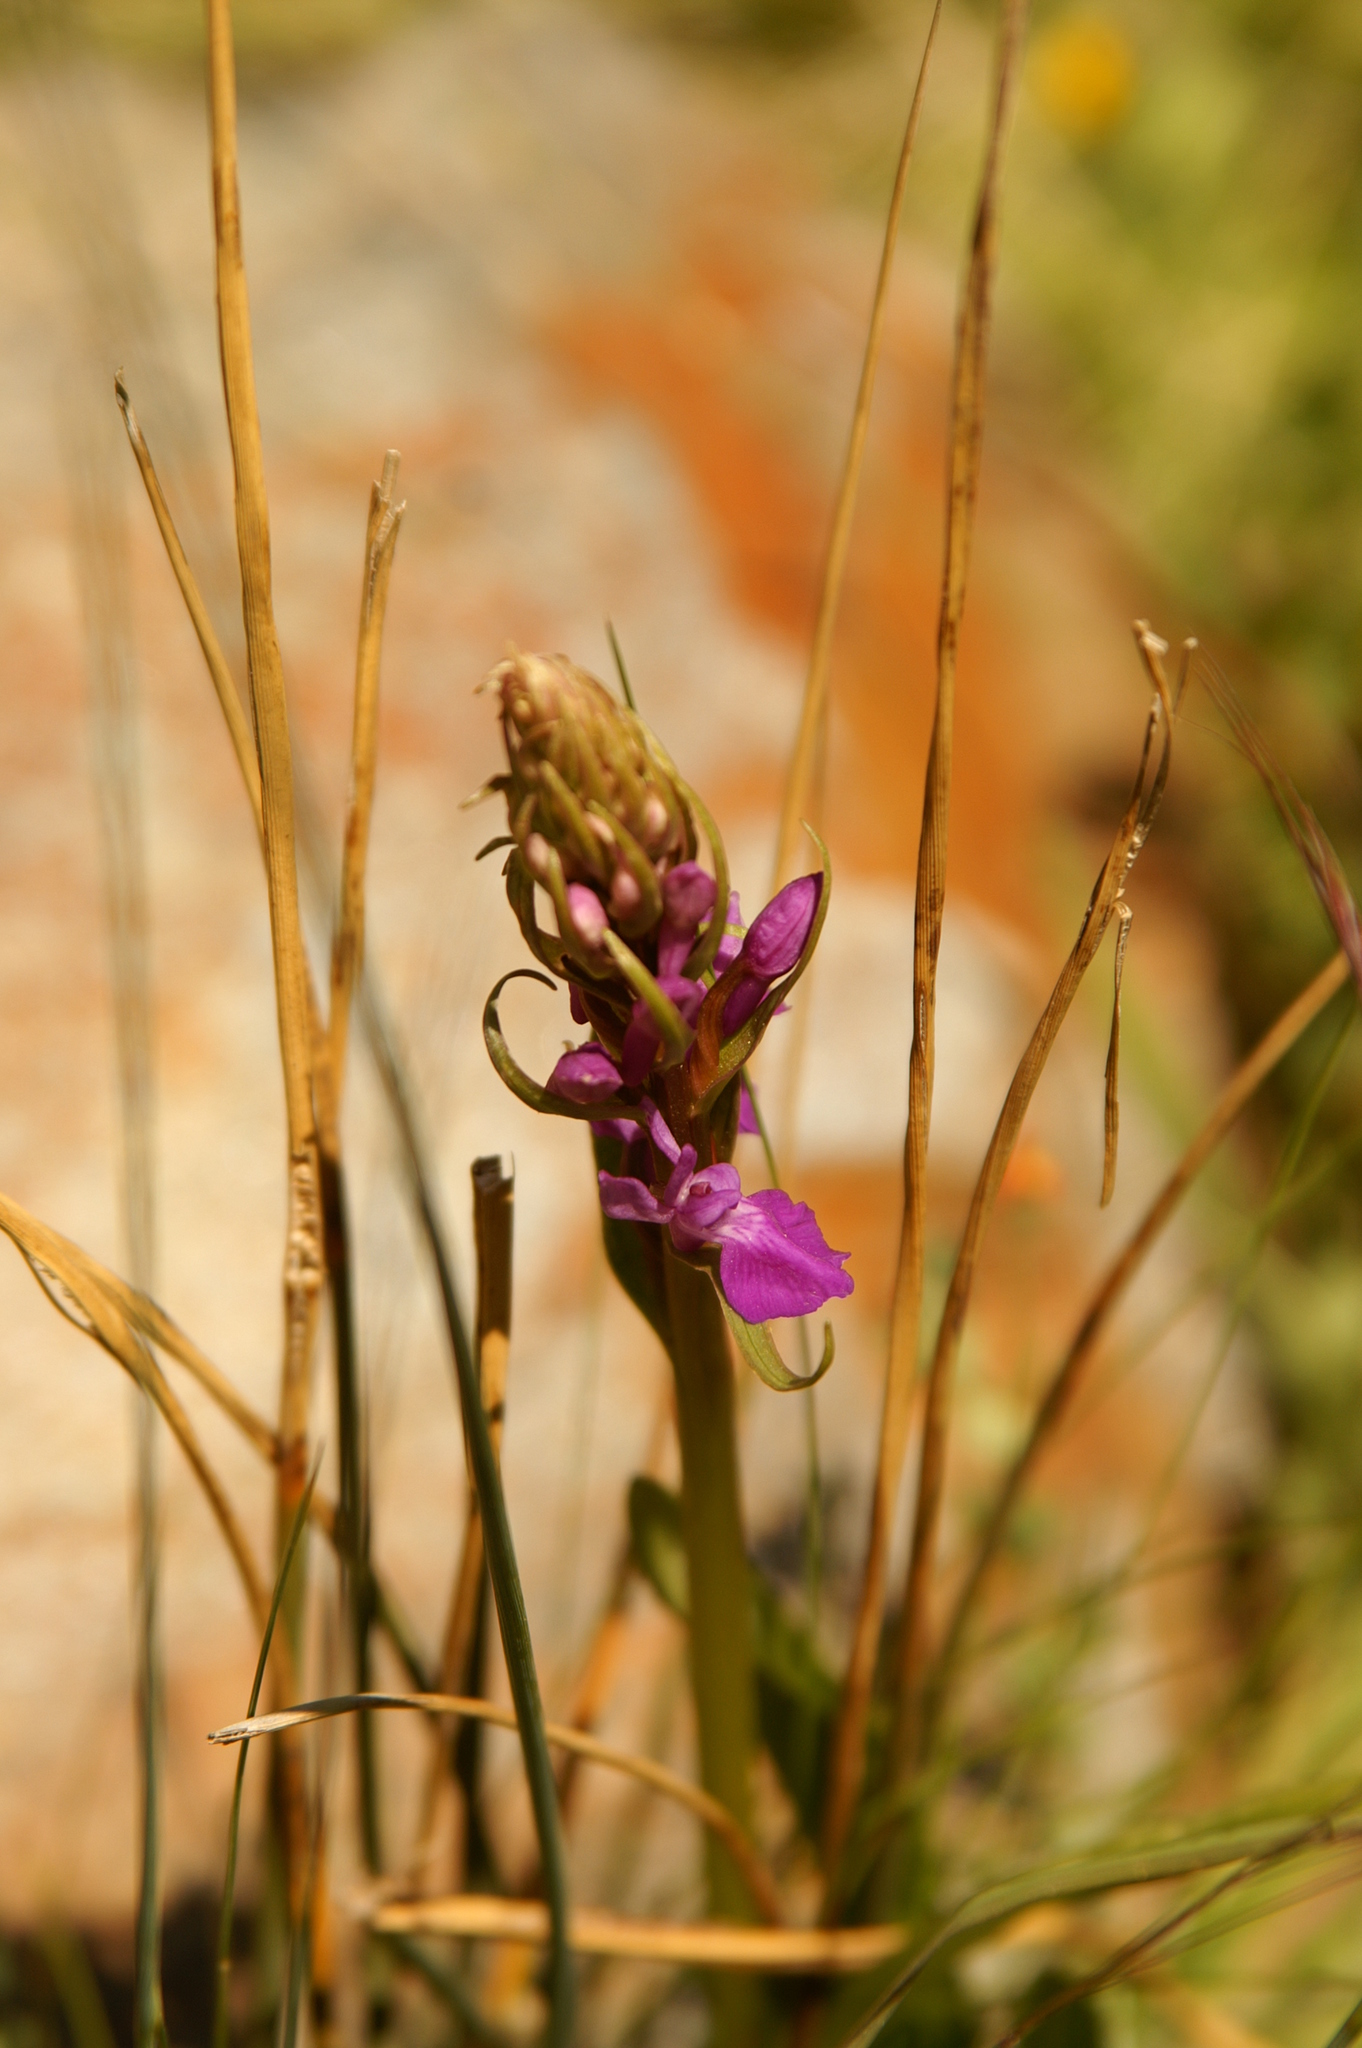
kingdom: Plantae
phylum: Tracheophyta
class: Liliopsida
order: Asparagales
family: Orchidaceae
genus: Dactylorhiza
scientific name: Dactylorhiza elata
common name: Stately dactylorhiza
